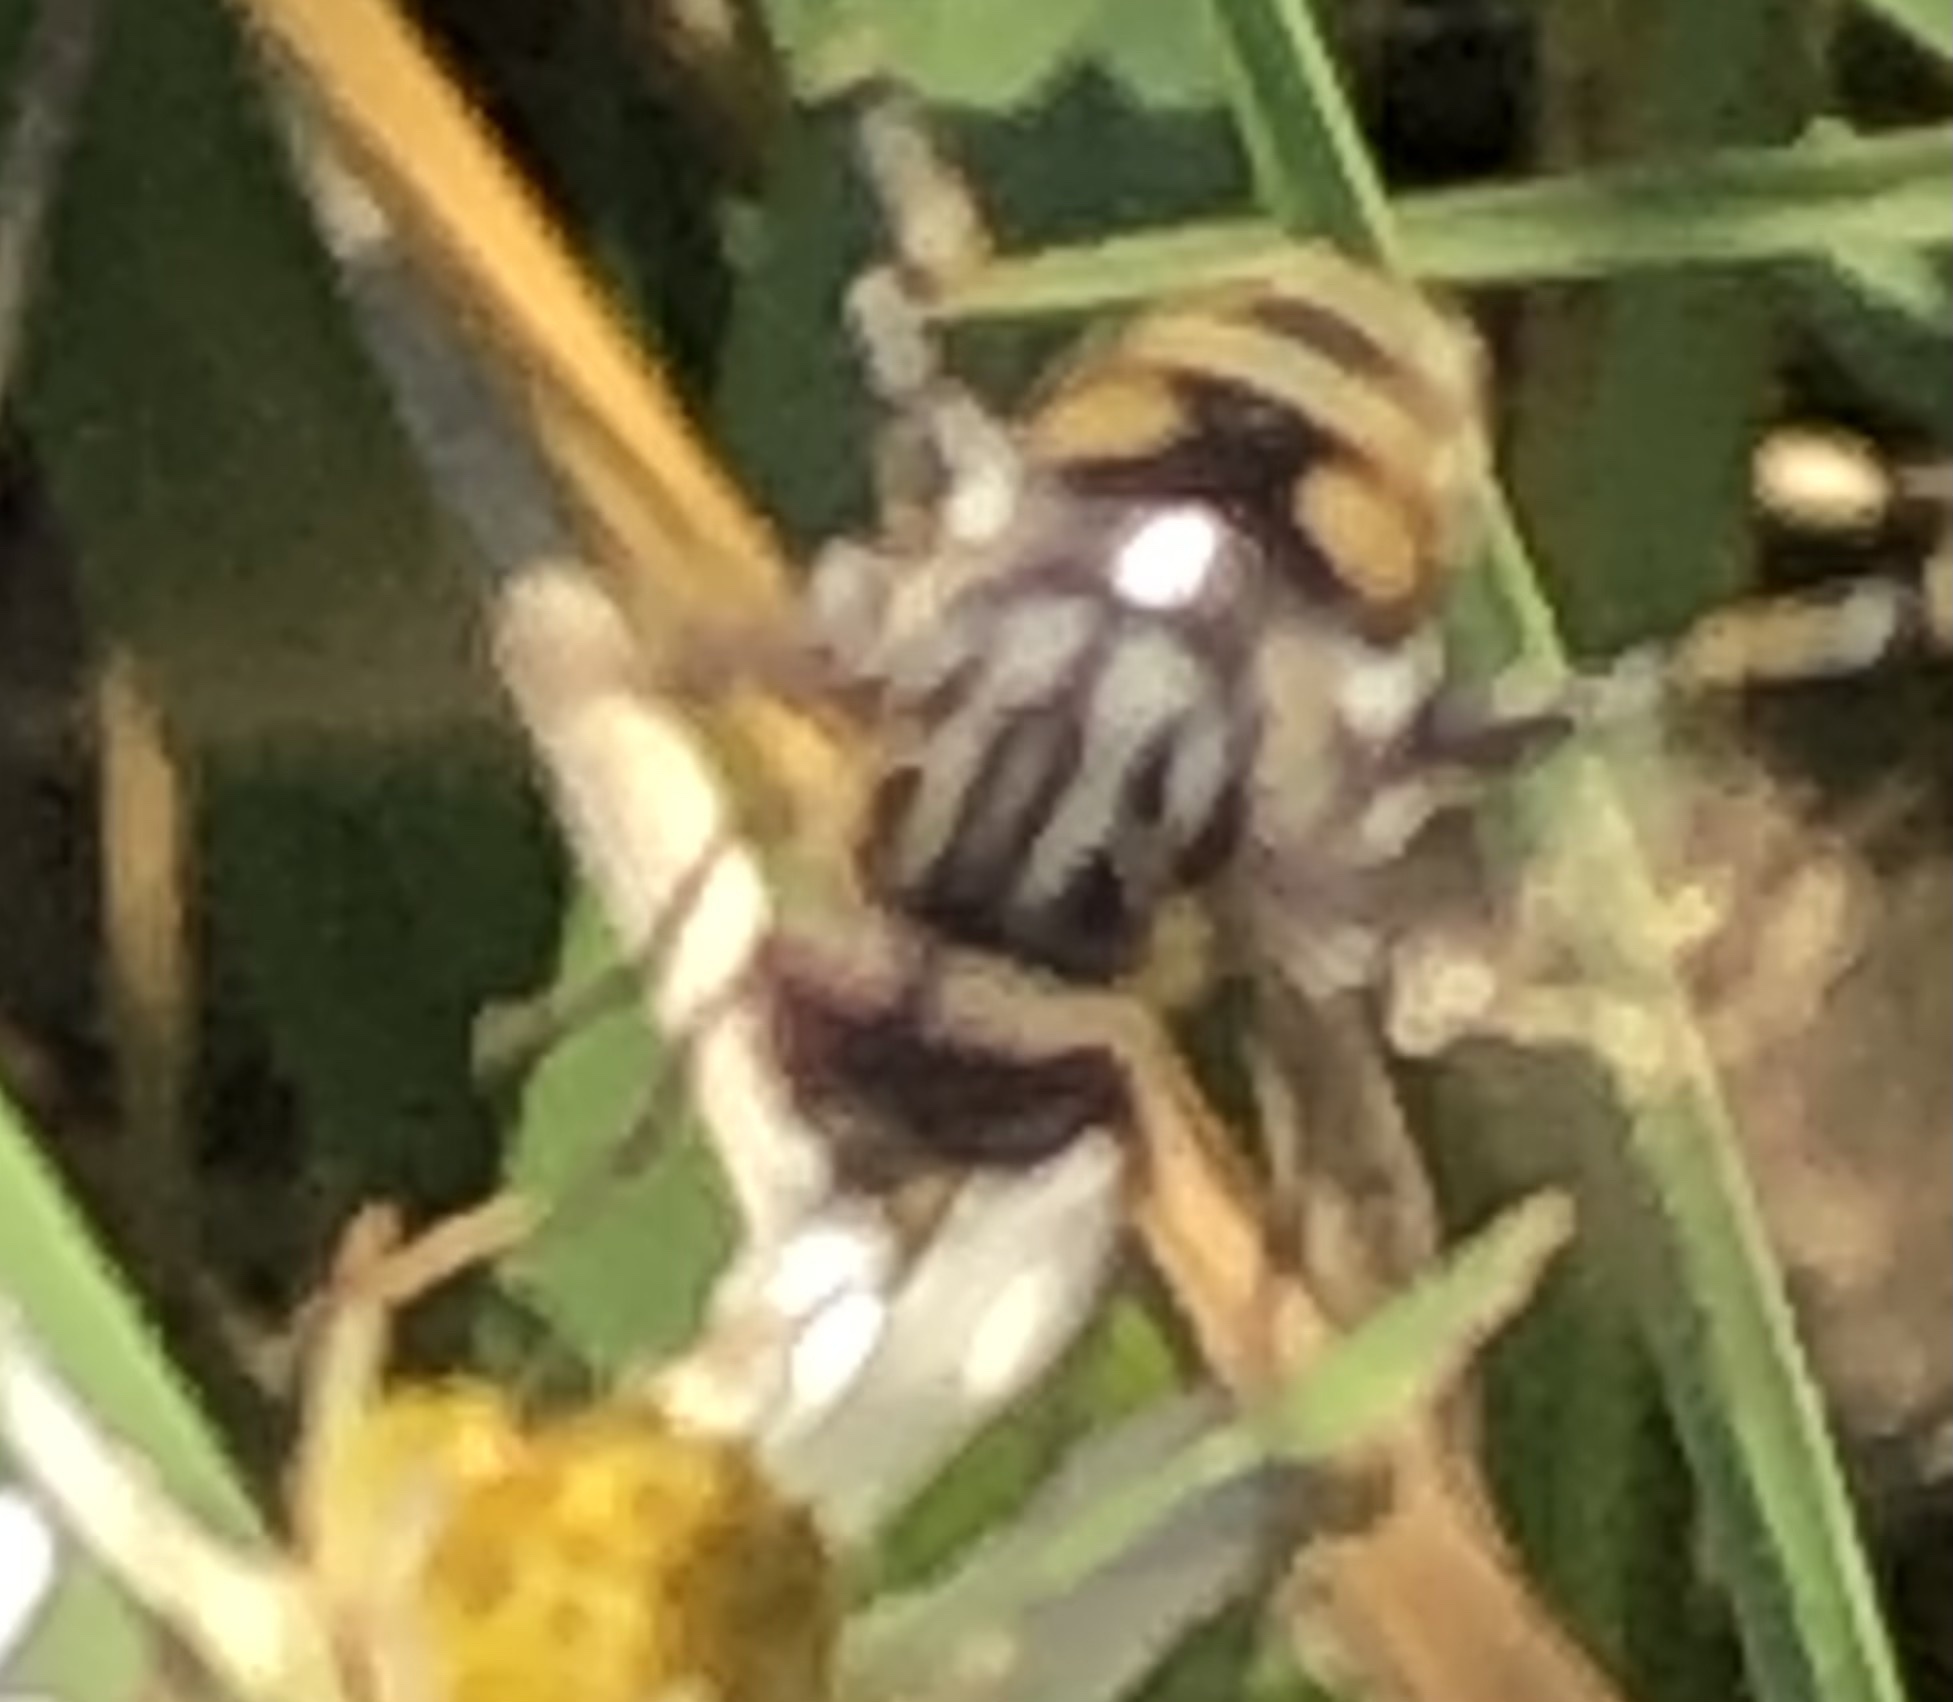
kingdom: Animalia
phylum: Arthropoda
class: Insecta
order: Diptera
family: Syrphidae
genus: Palpada
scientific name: Palpada furcata
